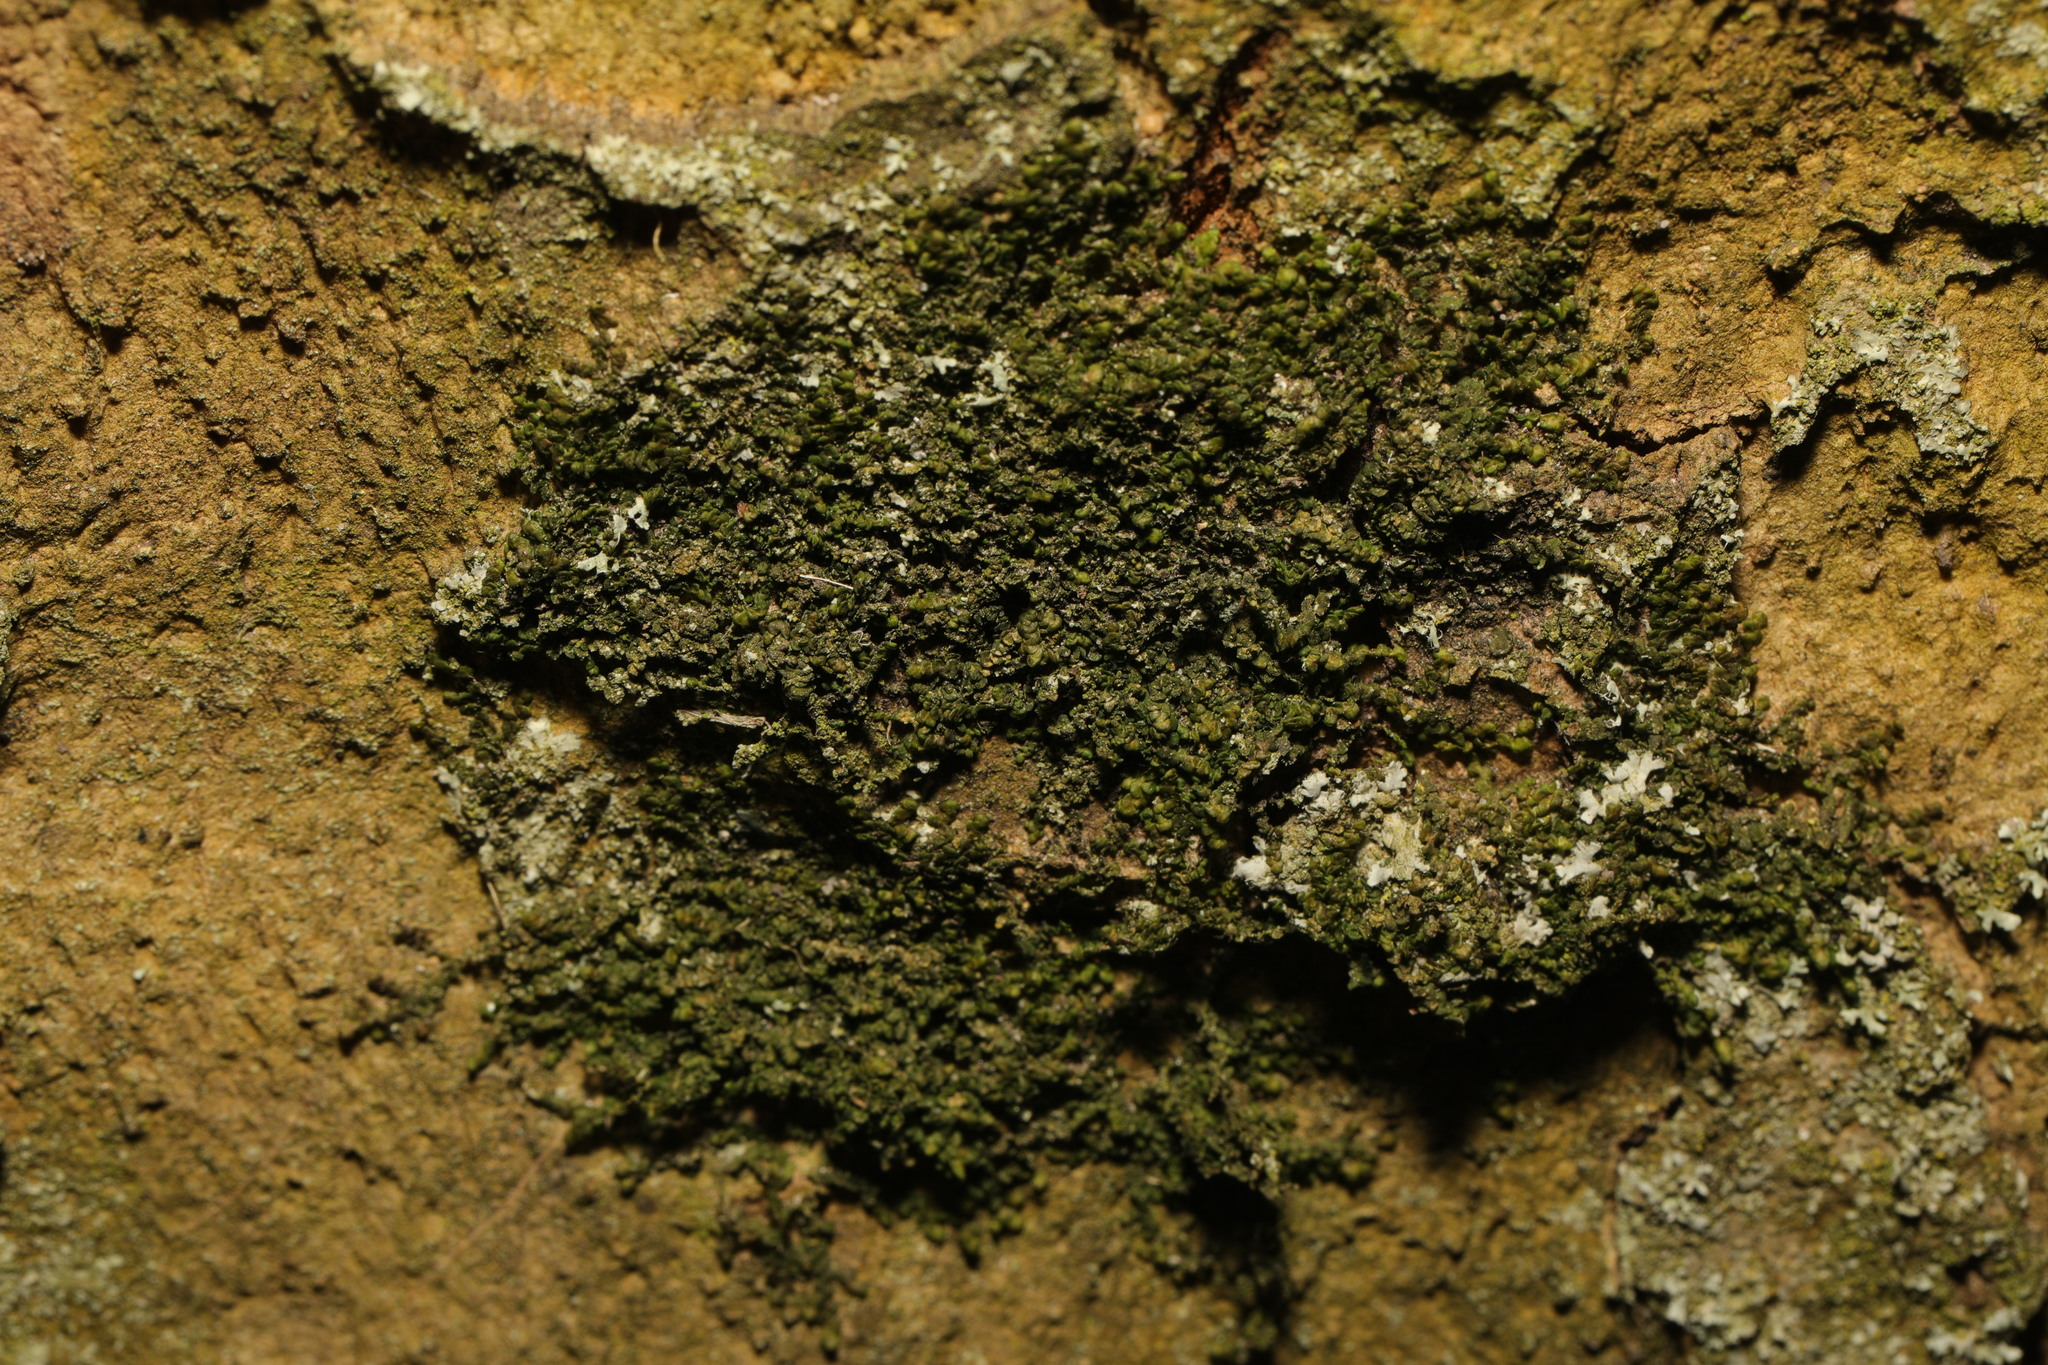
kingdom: Plantae
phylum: Marchantiophyta
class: Jungermanniopsida
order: Porellales
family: Frullaniaceae
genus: Frullania
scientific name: Frullania dilatata
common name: Dilated scalewort
